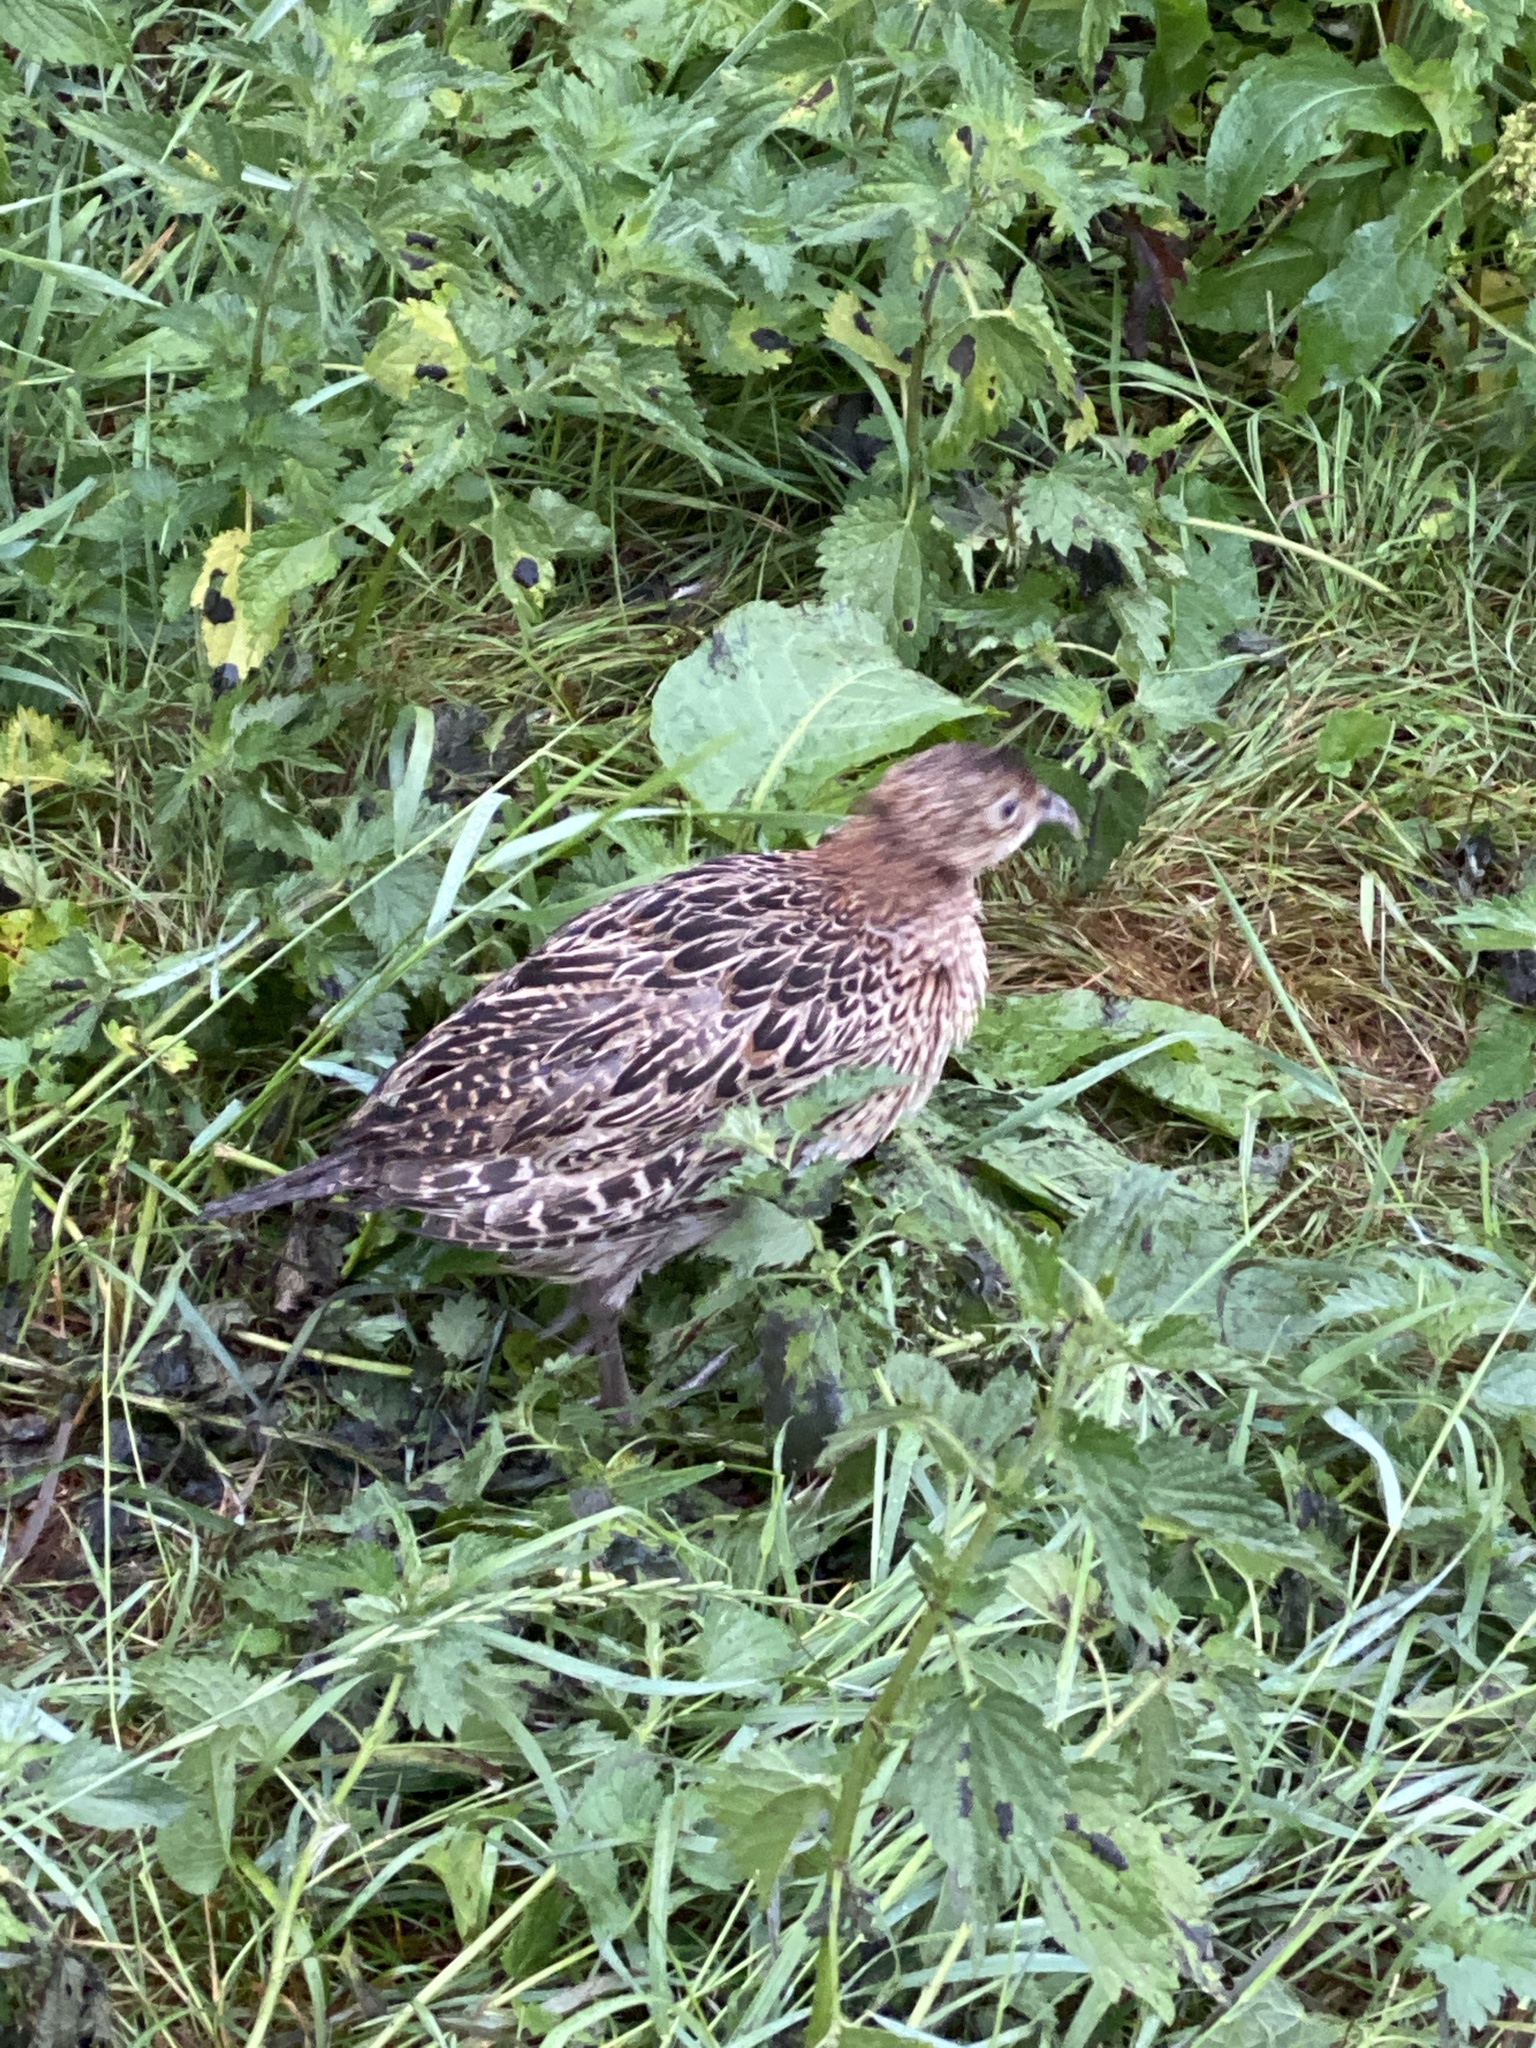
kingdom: Animalia
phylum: Chordata
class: Aves
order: Galliformes
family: Phasianidae
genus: Phasianus
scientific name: Phasianus colchicus
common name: Common pheasant
